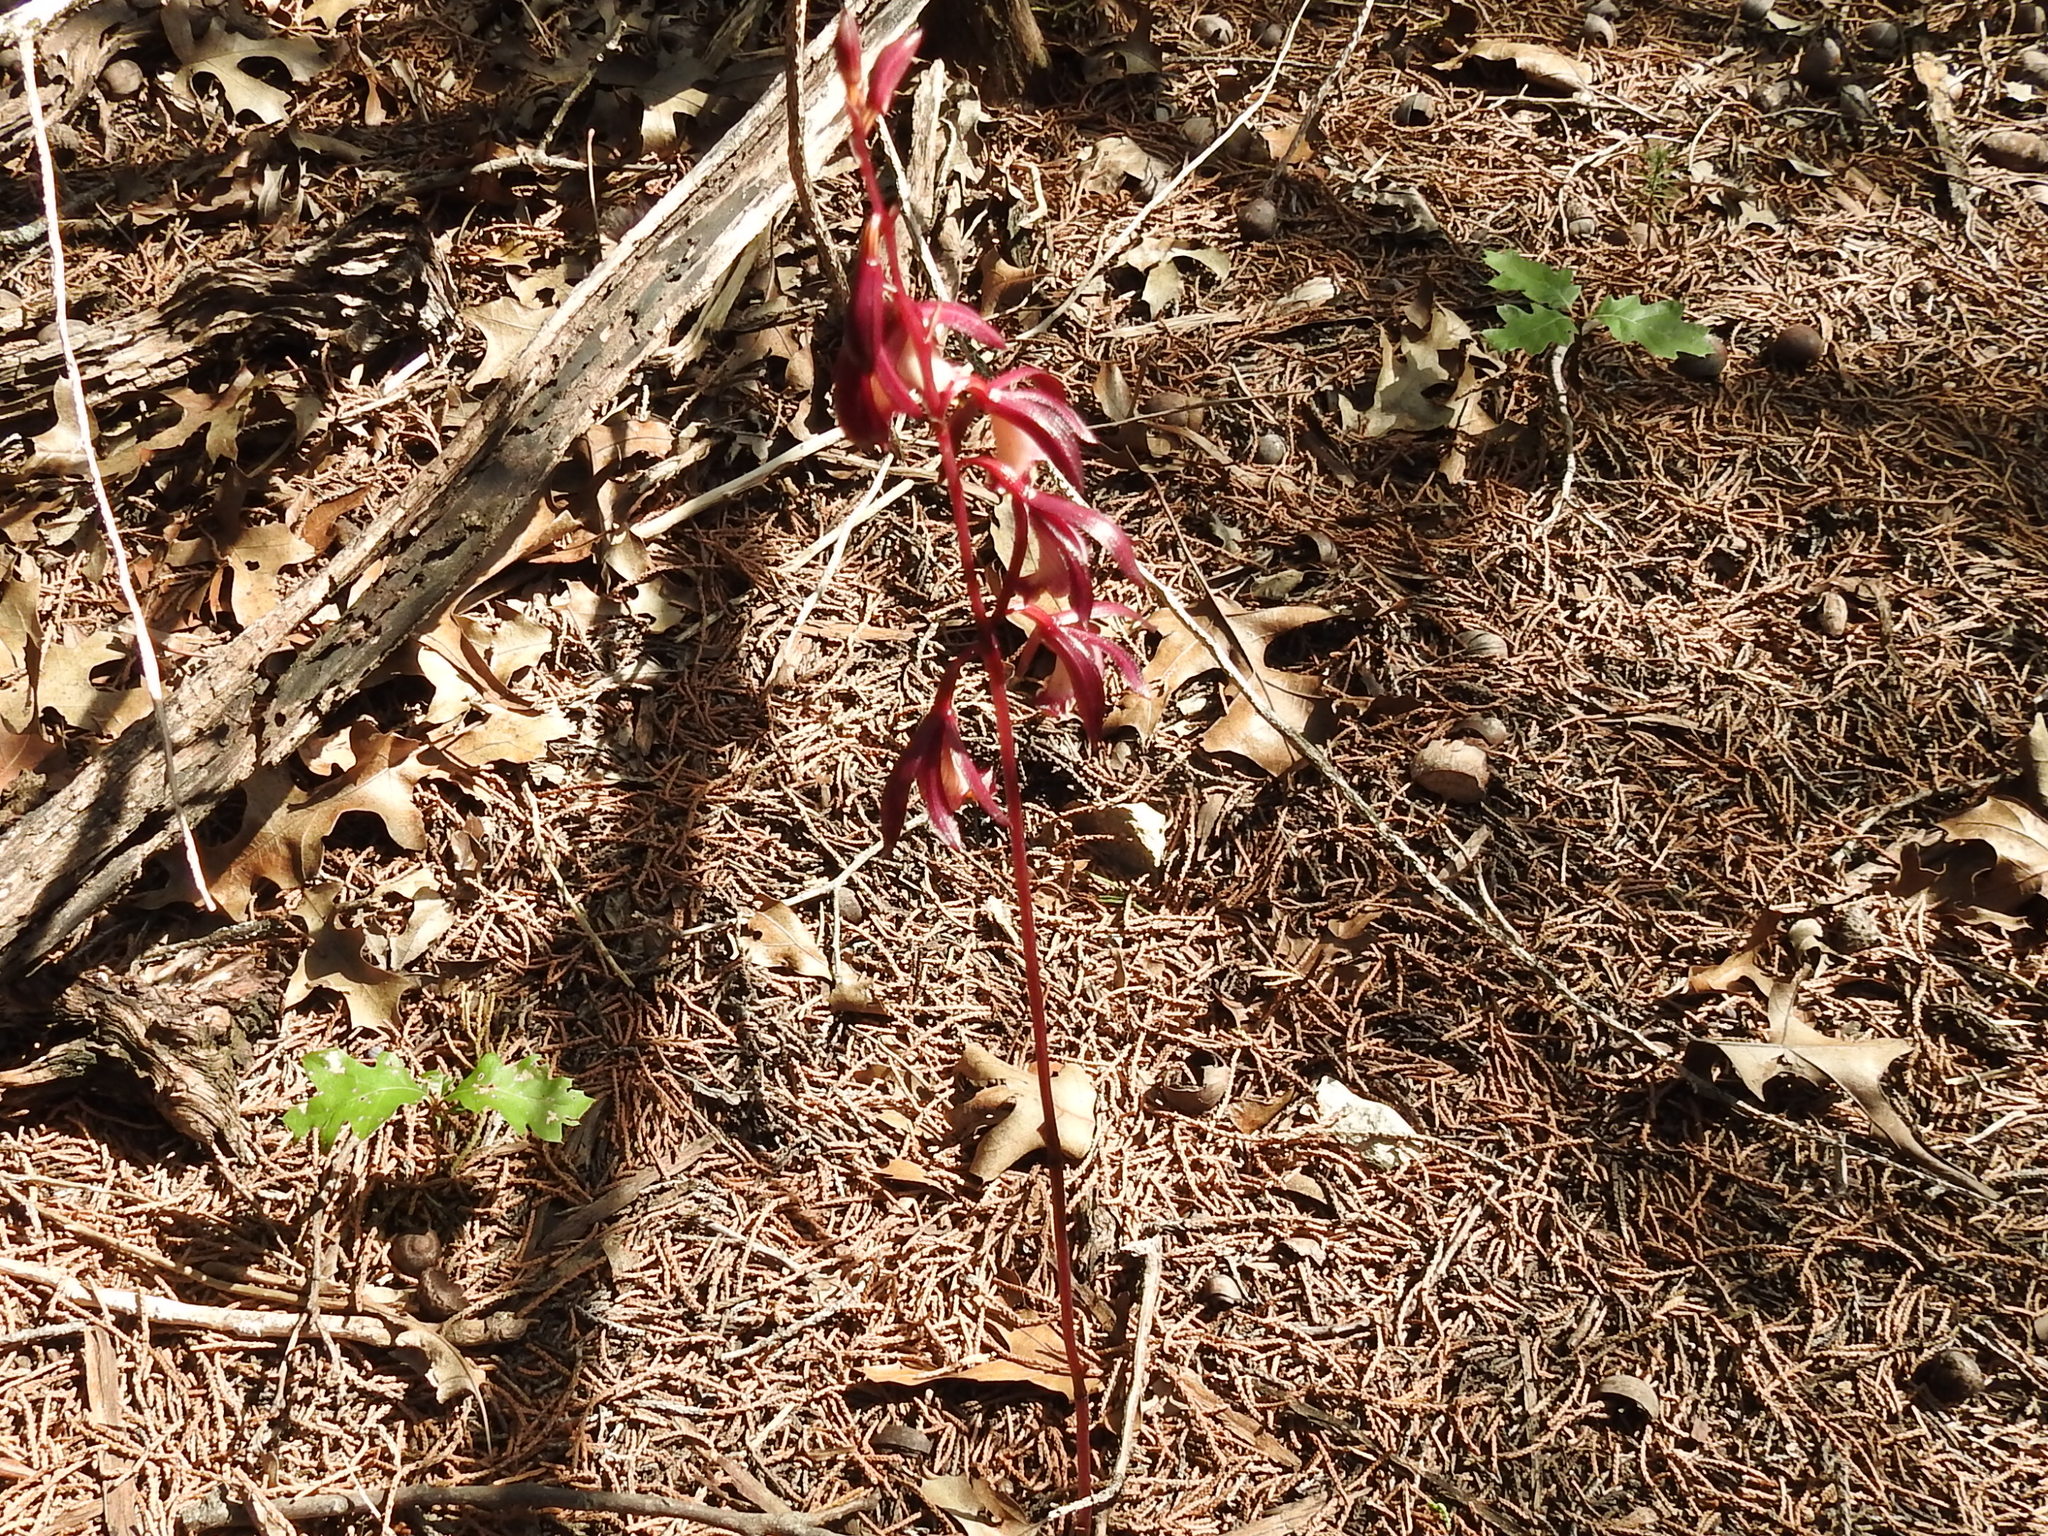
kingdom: Plantae
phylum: Tracheophyta
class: Liliopsida
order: Asparagales
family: Orchidaceae
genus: Bletia
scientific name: Bletia warnockii
